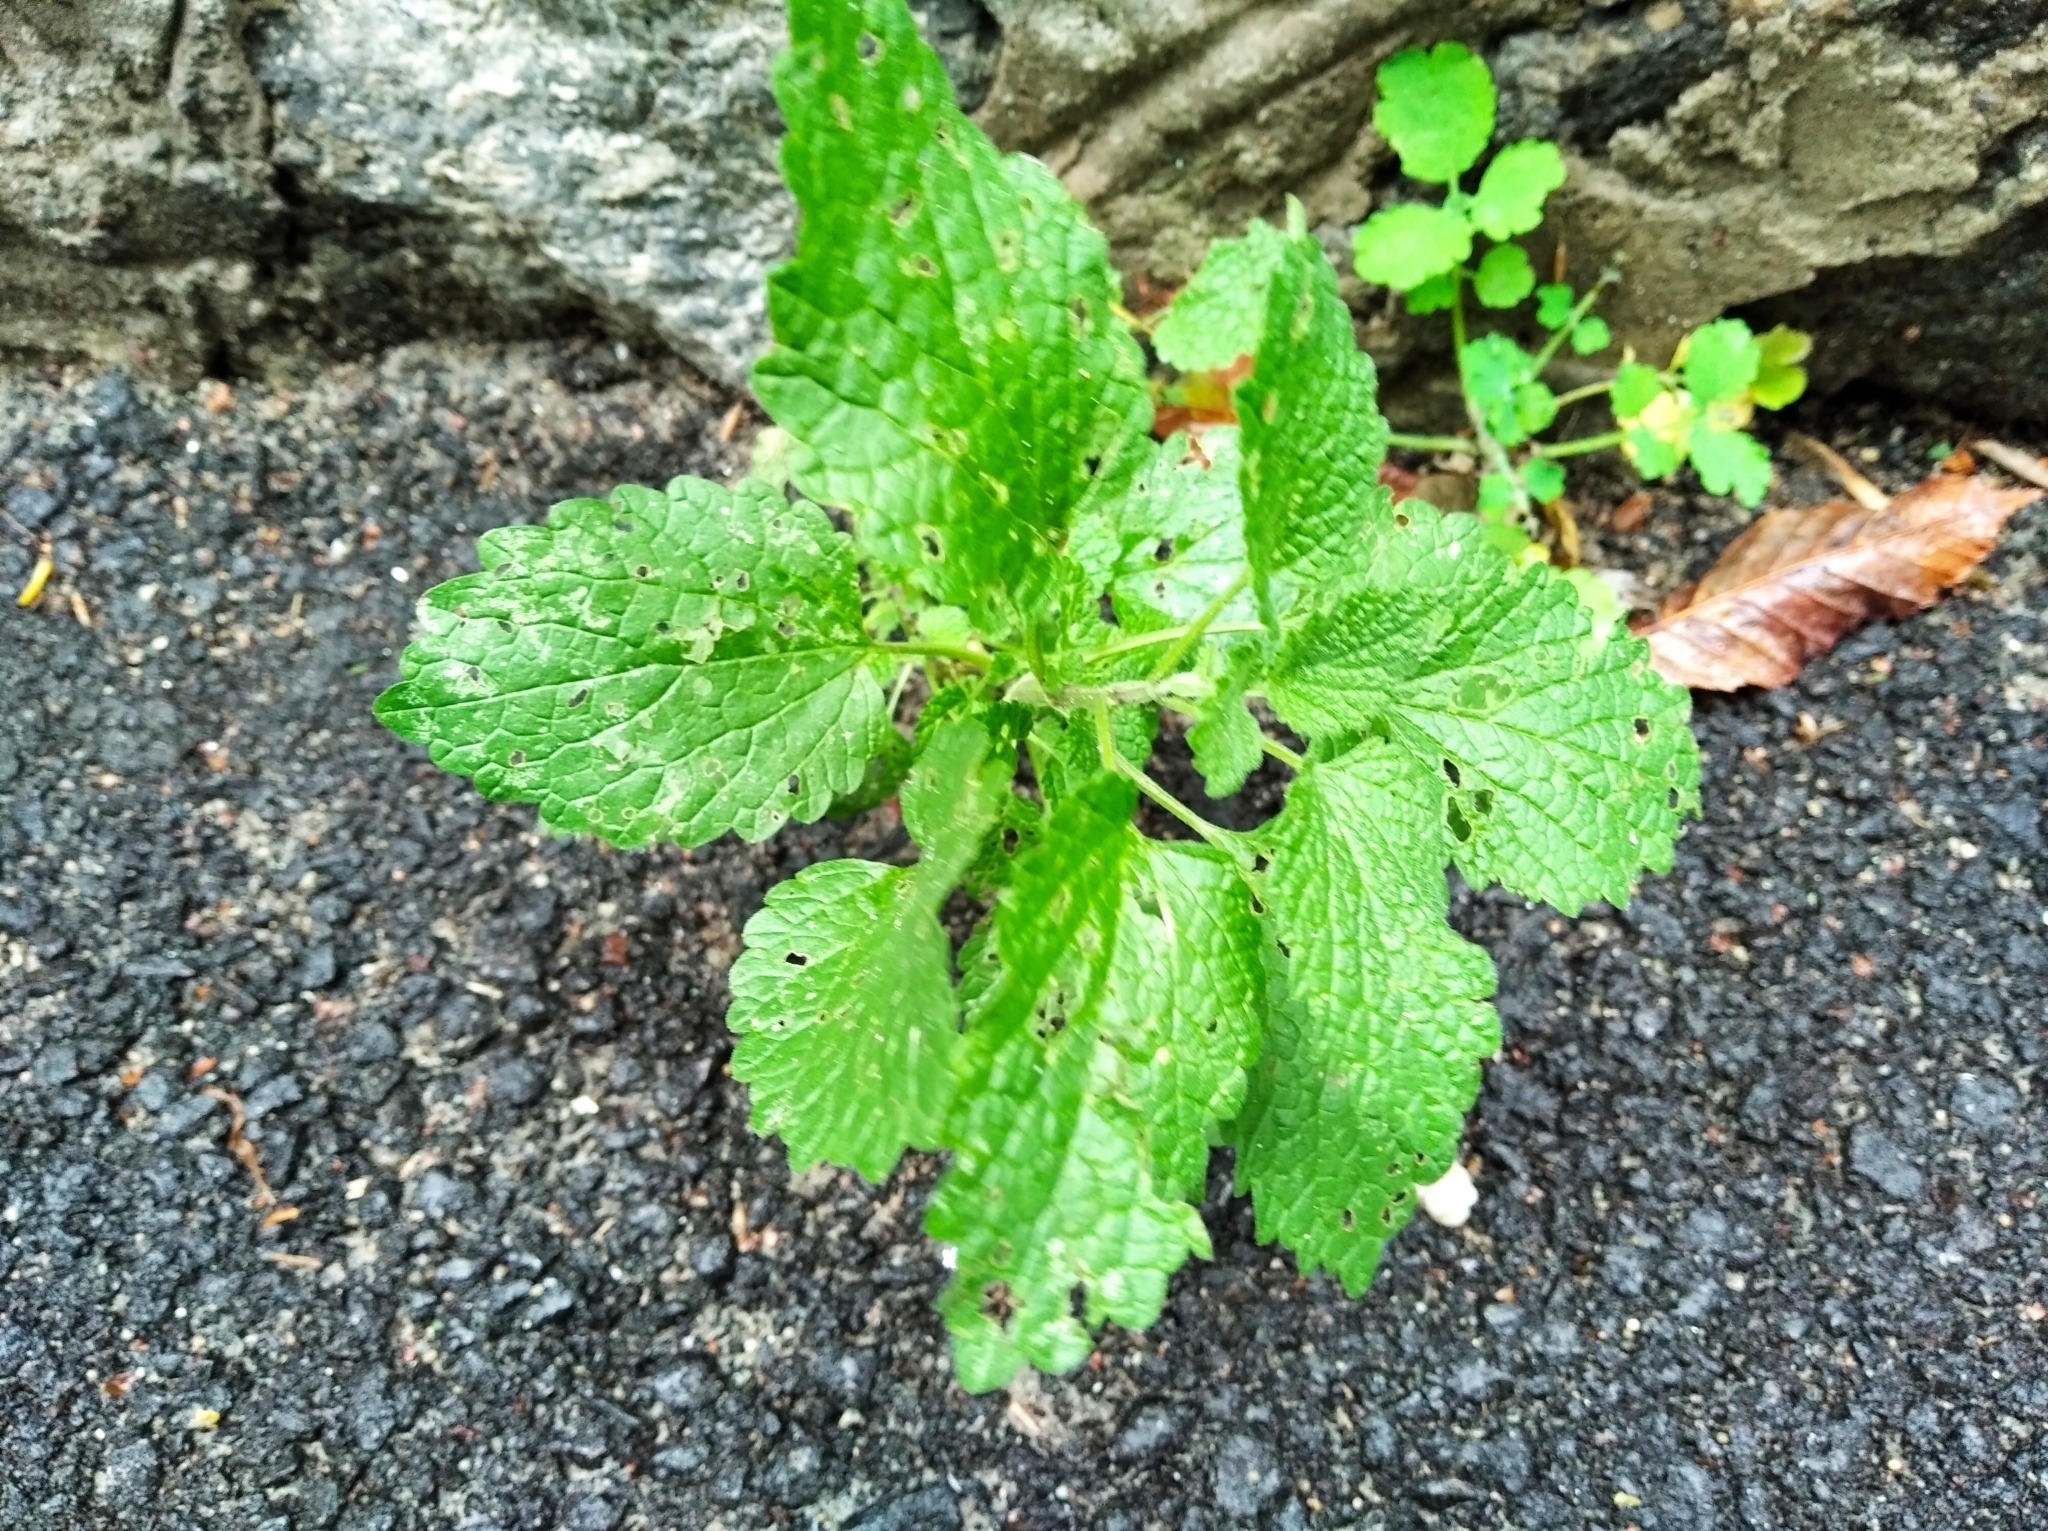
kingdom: Plantae
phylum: Tracheophyta
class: Magnoliopsida
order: Lamiales
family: Lamiaceae
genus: Ballota
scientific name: Ballota nigra
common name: Black horehound
